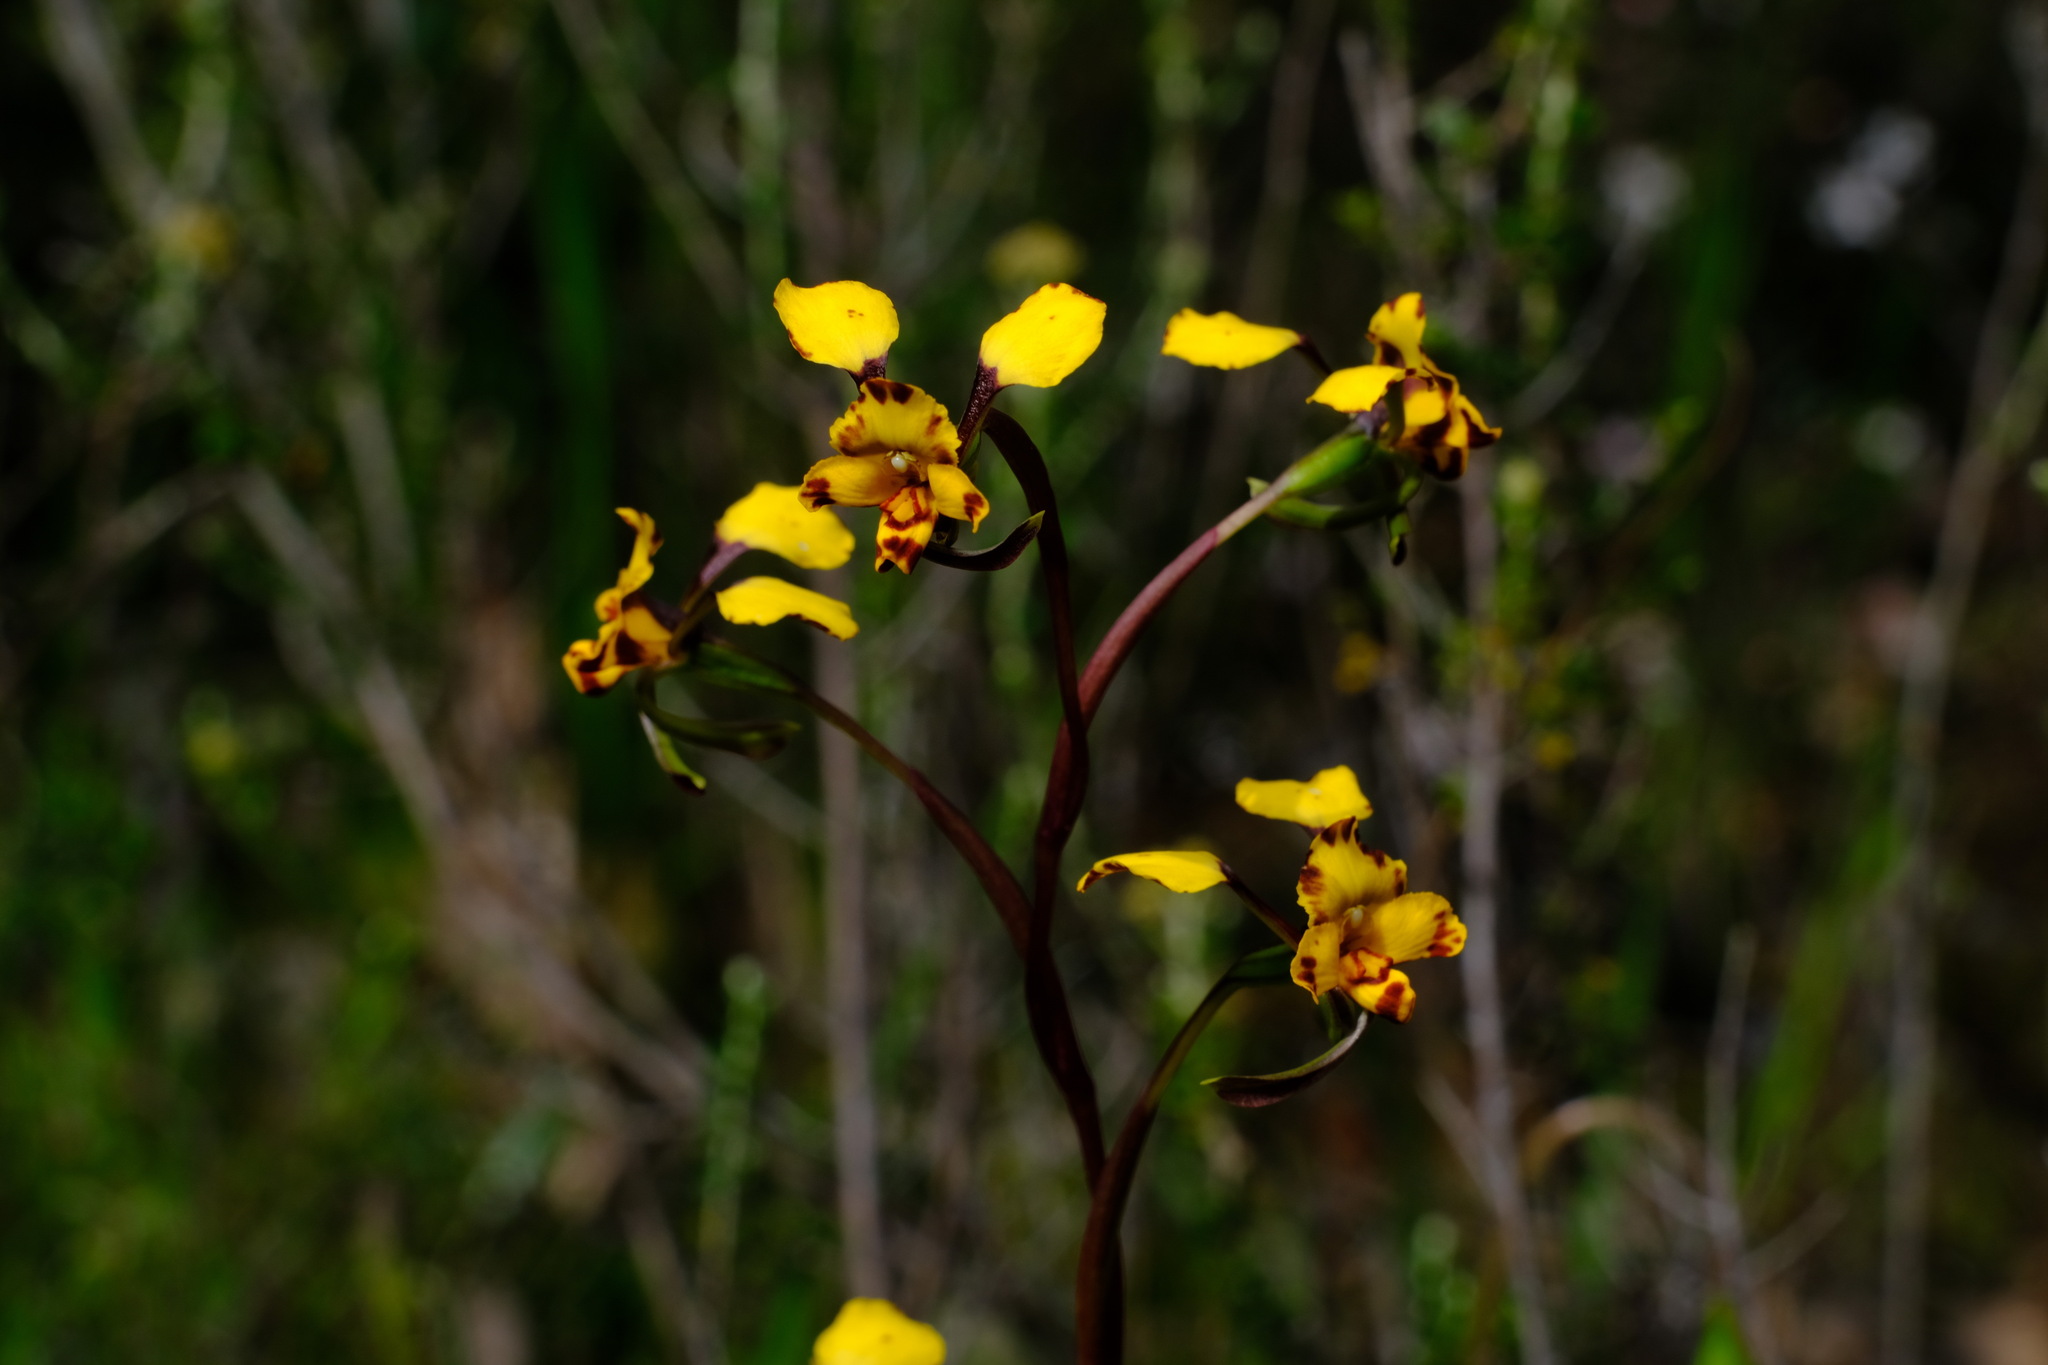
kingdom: Plantae
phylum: Tracheophyta
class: Liliopsida
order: Asparagales
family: Orchidaceae
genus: Diuris
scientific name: Diuris pardina
